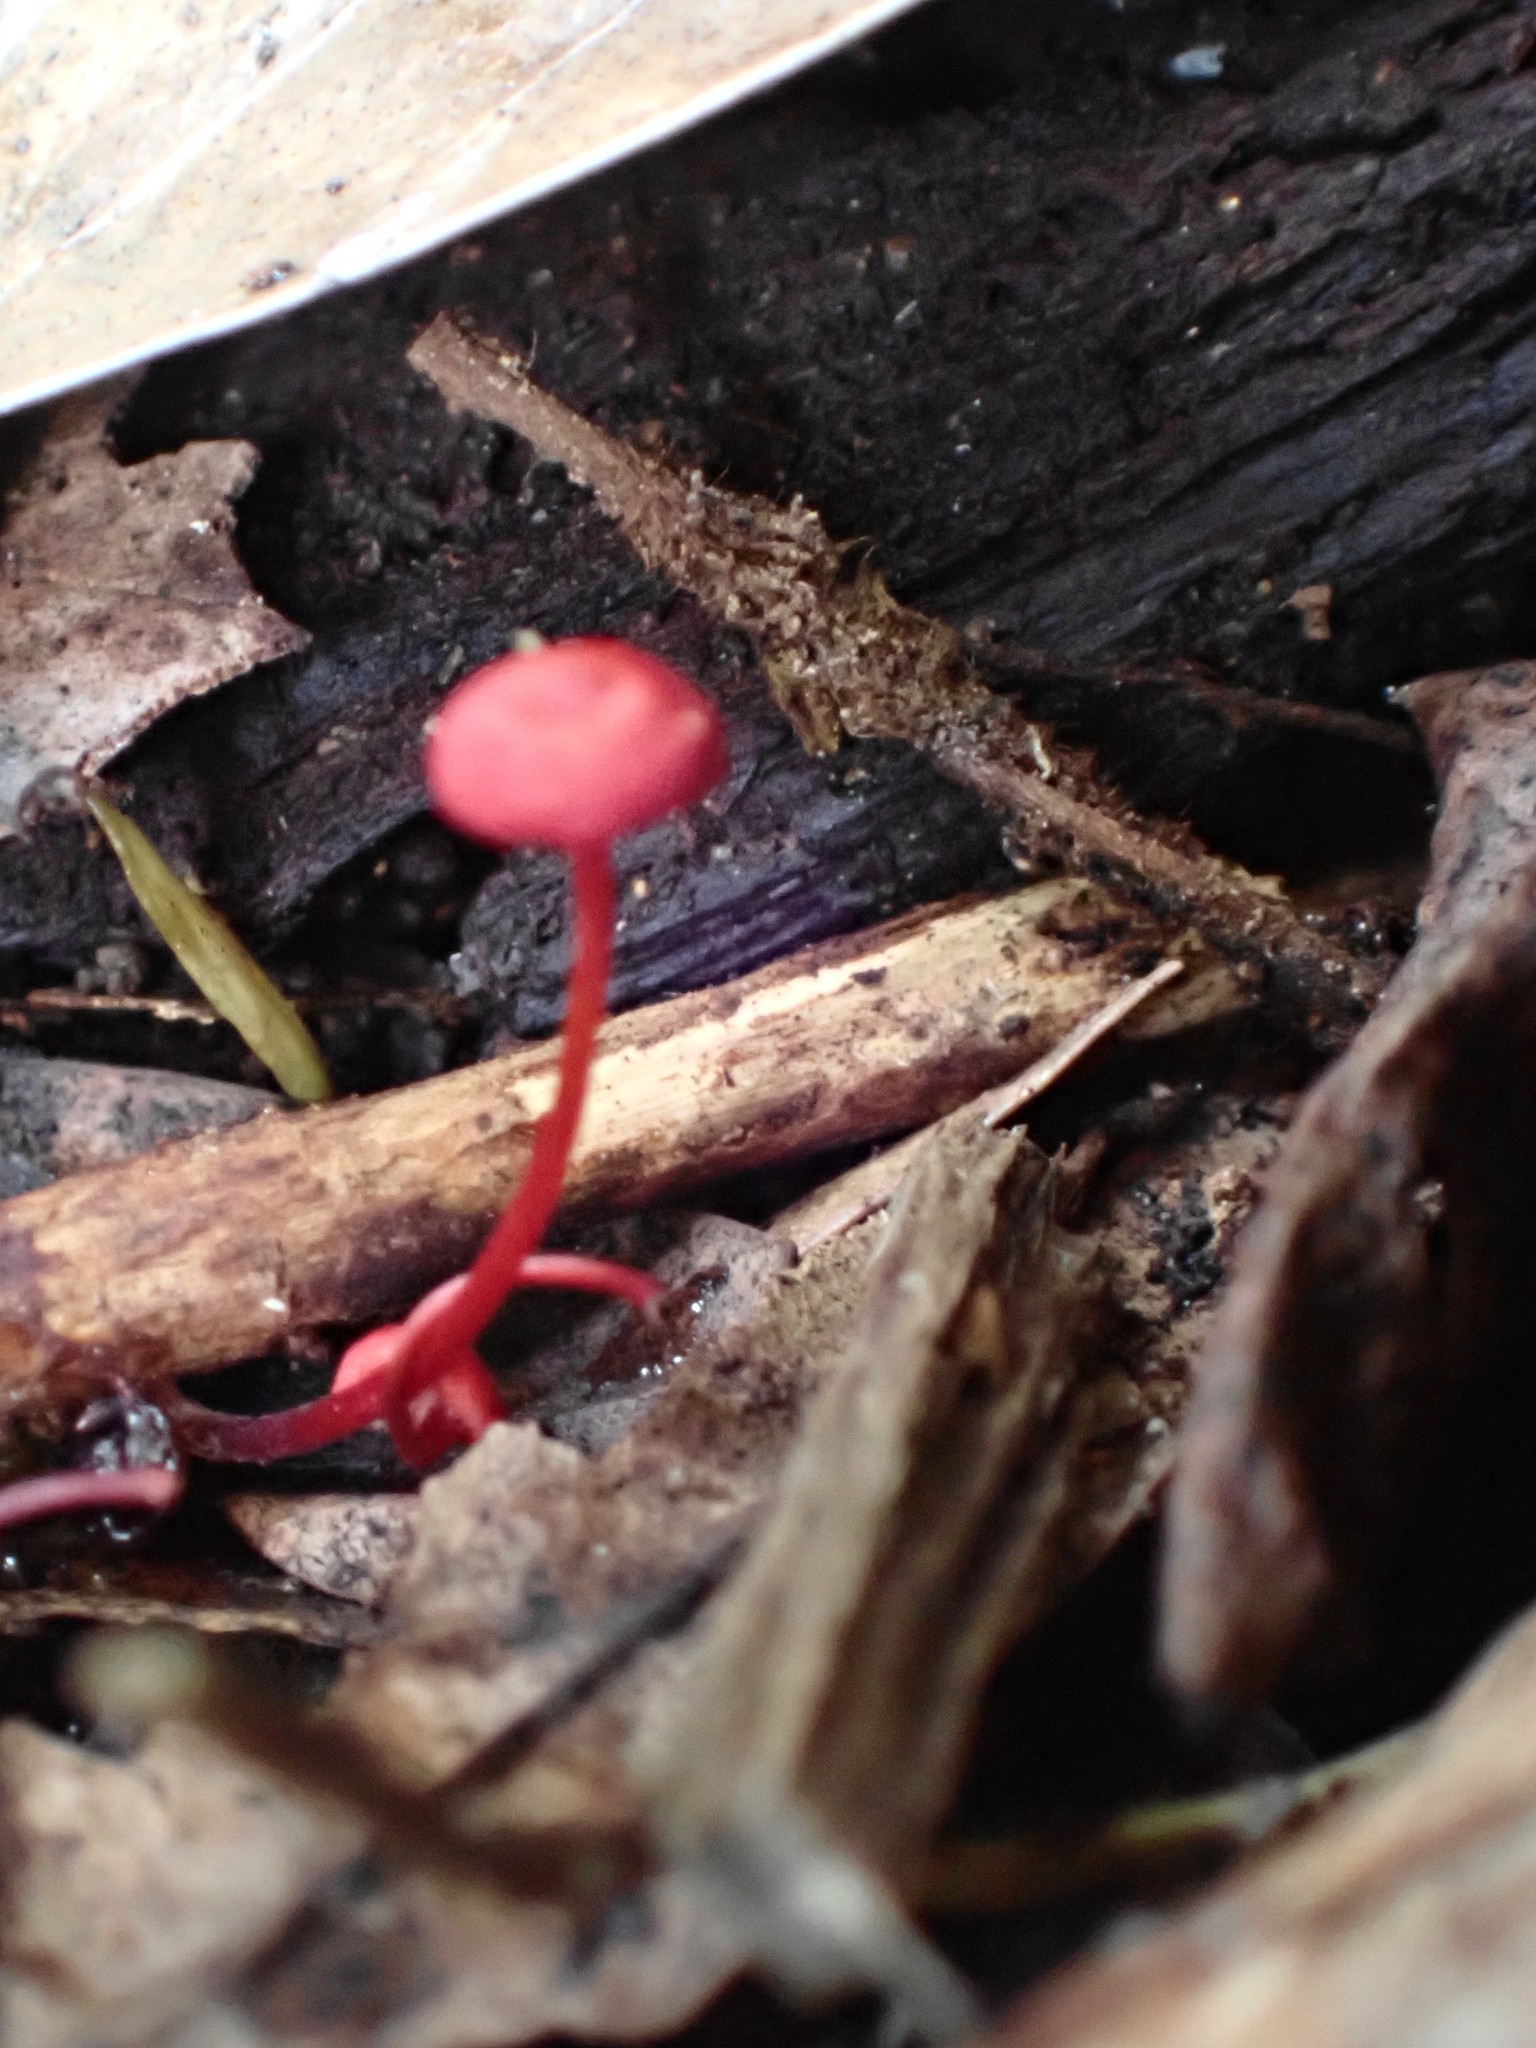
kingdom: Fungi
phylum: Basidiomycota
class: Agaricomycetes
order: Agaricales
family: Mycenaceae
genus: Cruentomycena
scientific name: Cruentomycena viscidocruenta
